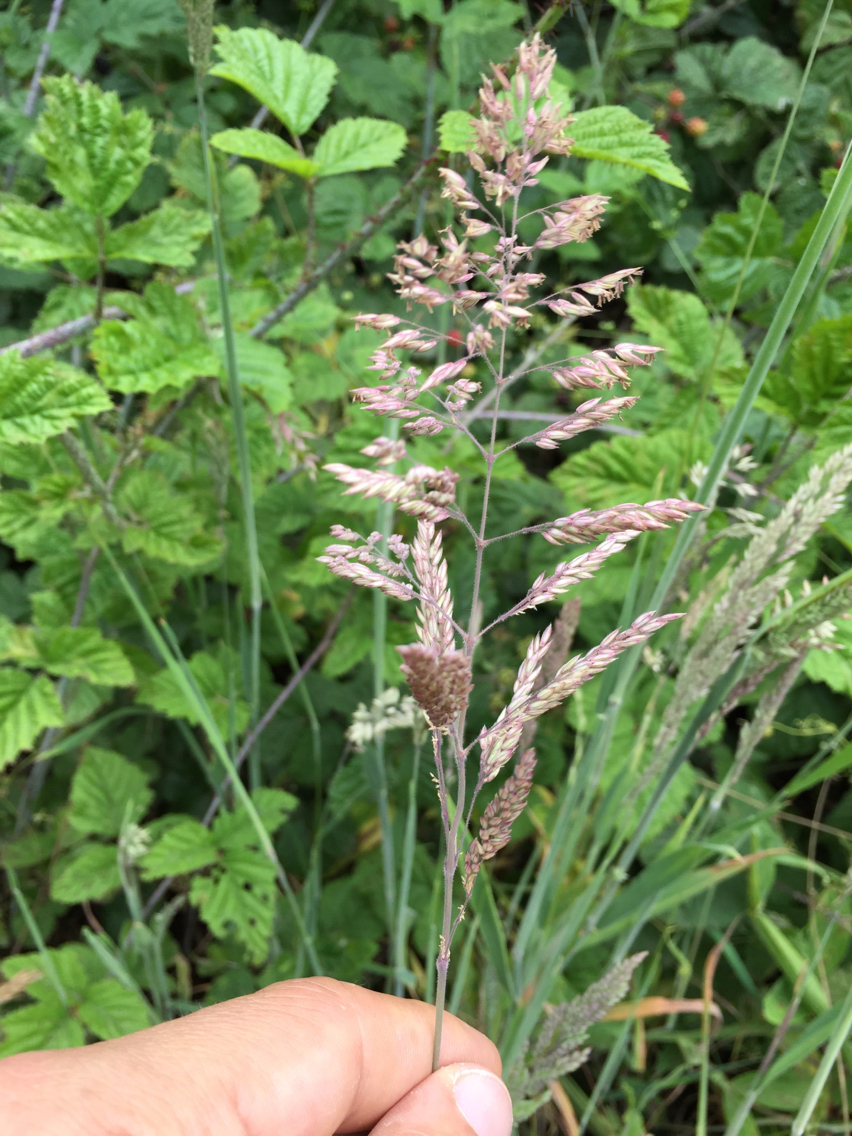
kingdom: Plantae
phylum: Tracheophyta
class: Liliopsida
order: Poales
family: Poaceae
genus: Holcus
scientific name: Holcus lanatus
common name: Yorkshire-fog
